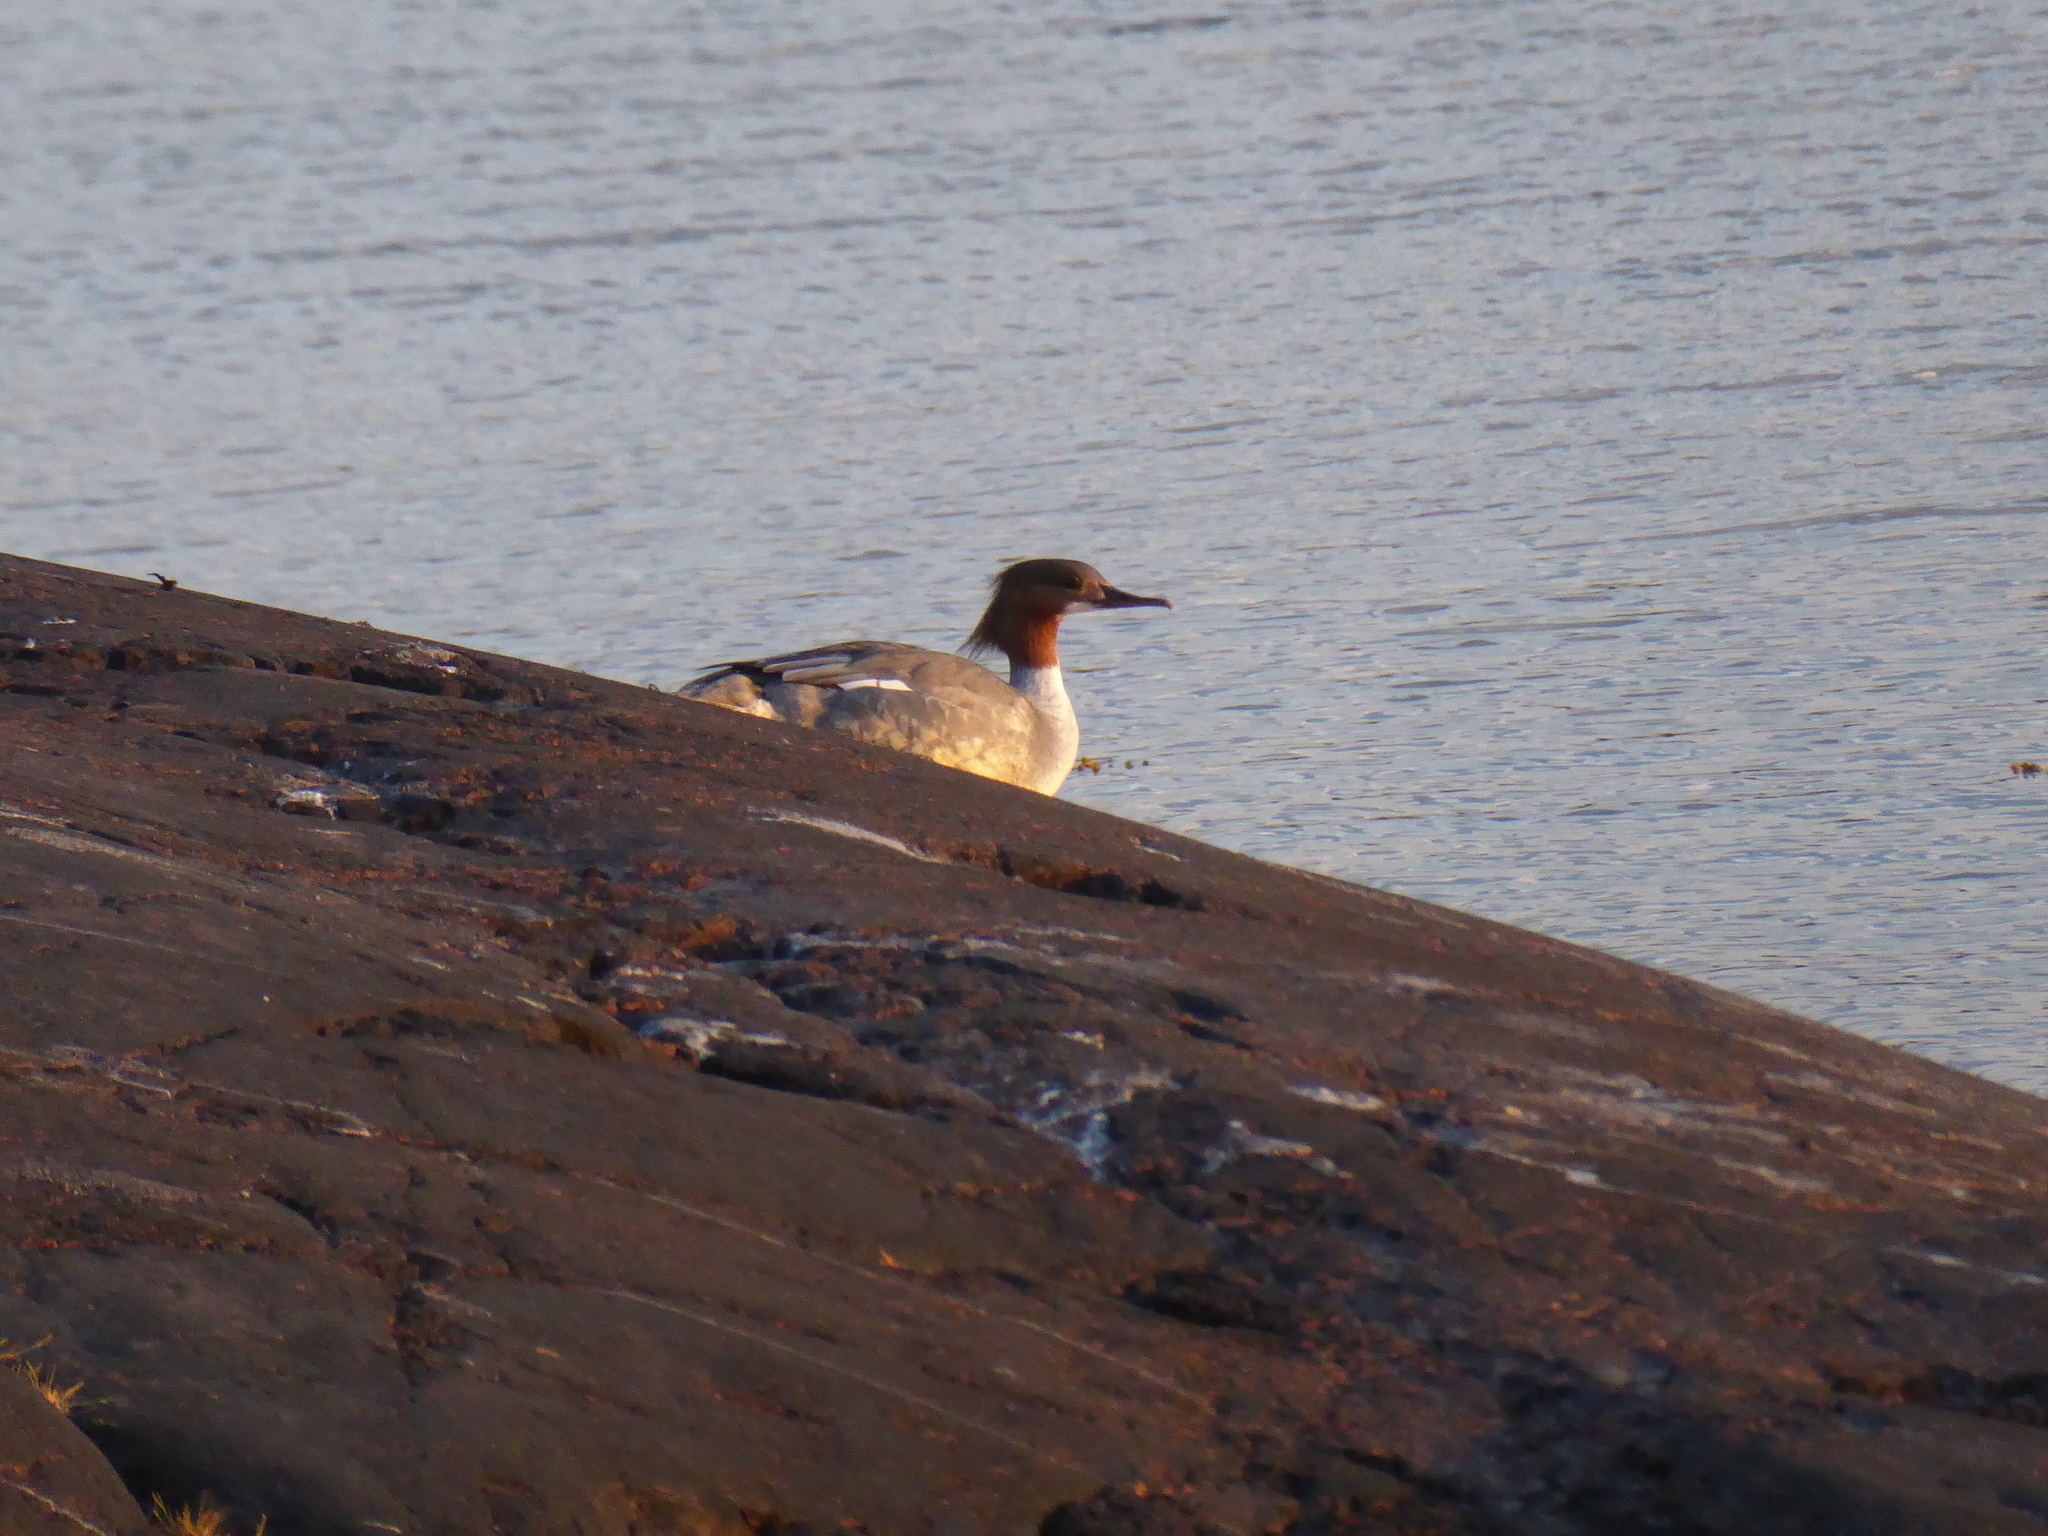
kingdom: Animalia
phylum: Chordata
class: Aves
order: Anseriformes
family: Anatidae
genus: Mergus
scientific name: Mergus merganser
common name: Common merganser
